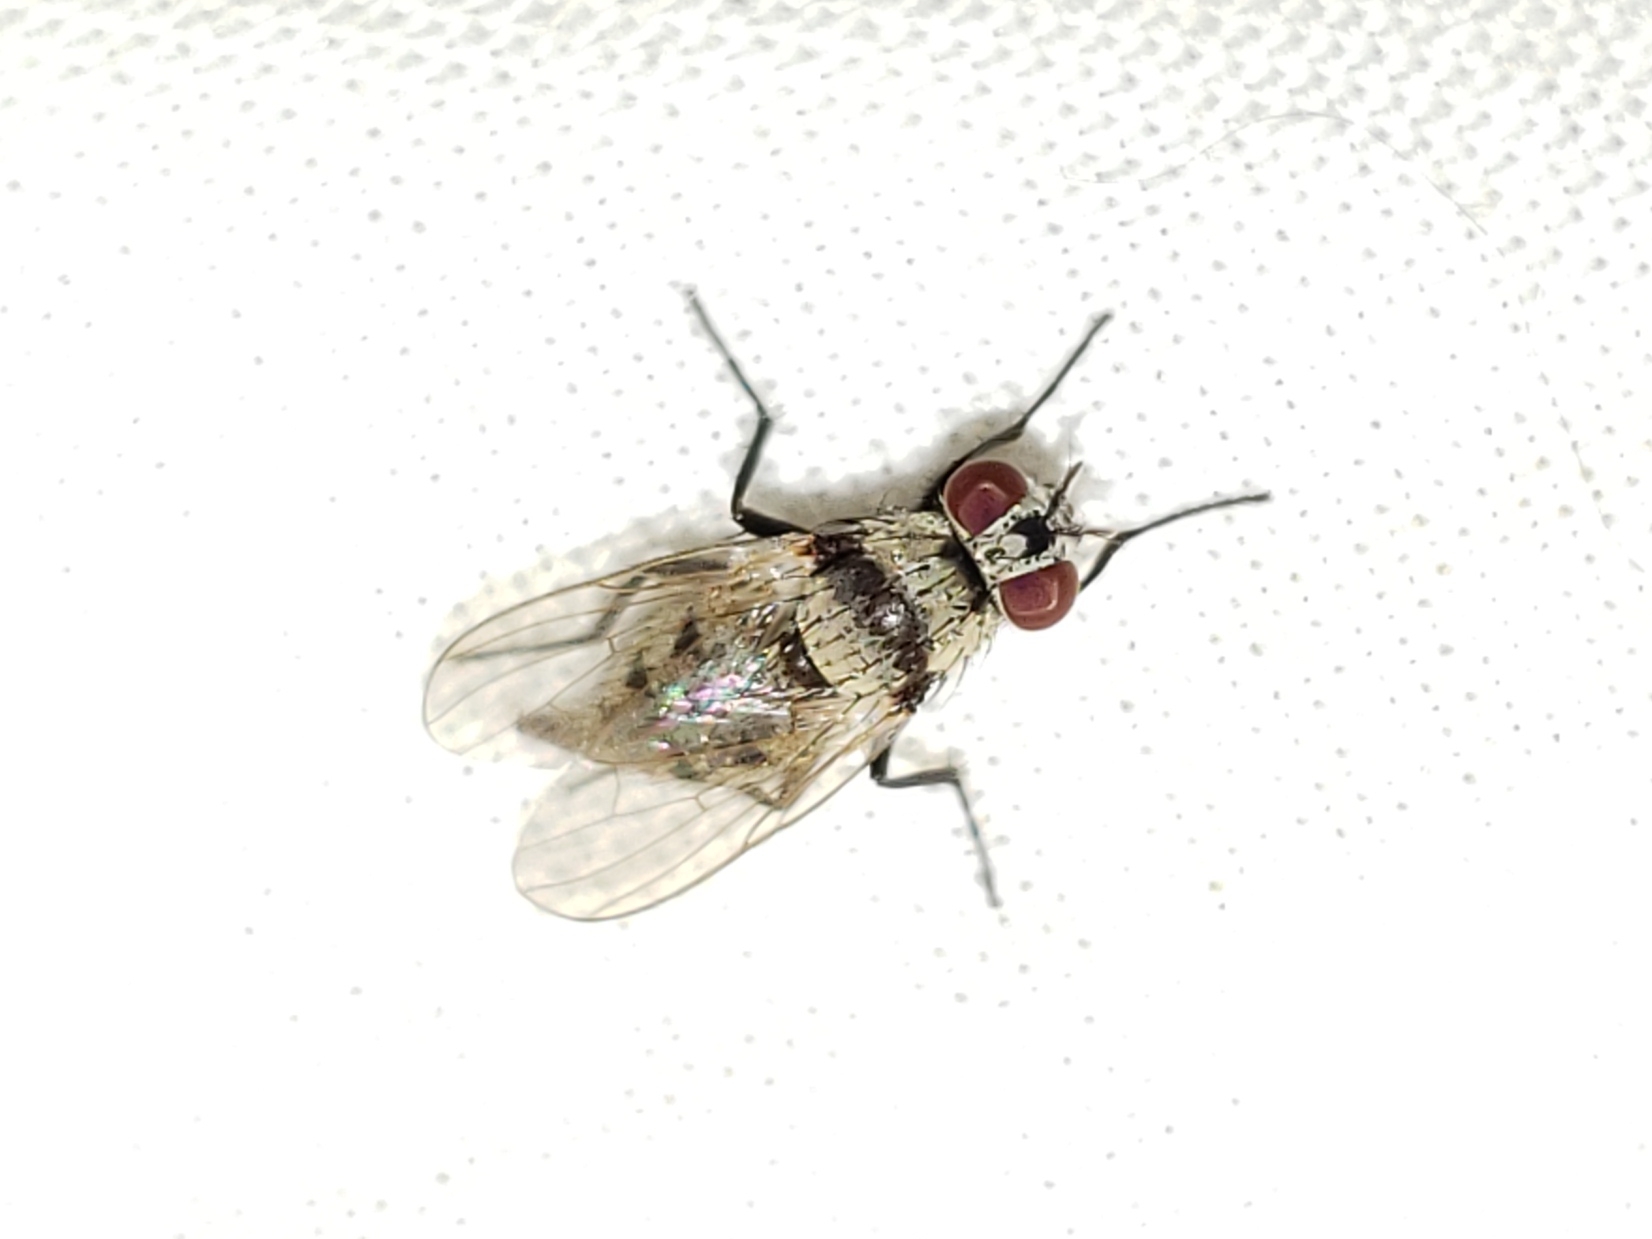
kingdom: Animalia
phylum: Arthropoda
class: Insecta
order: Diptera
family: Anthomyiidae
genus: Anthomyia
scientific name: Anthomyia illocata
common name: Fly
